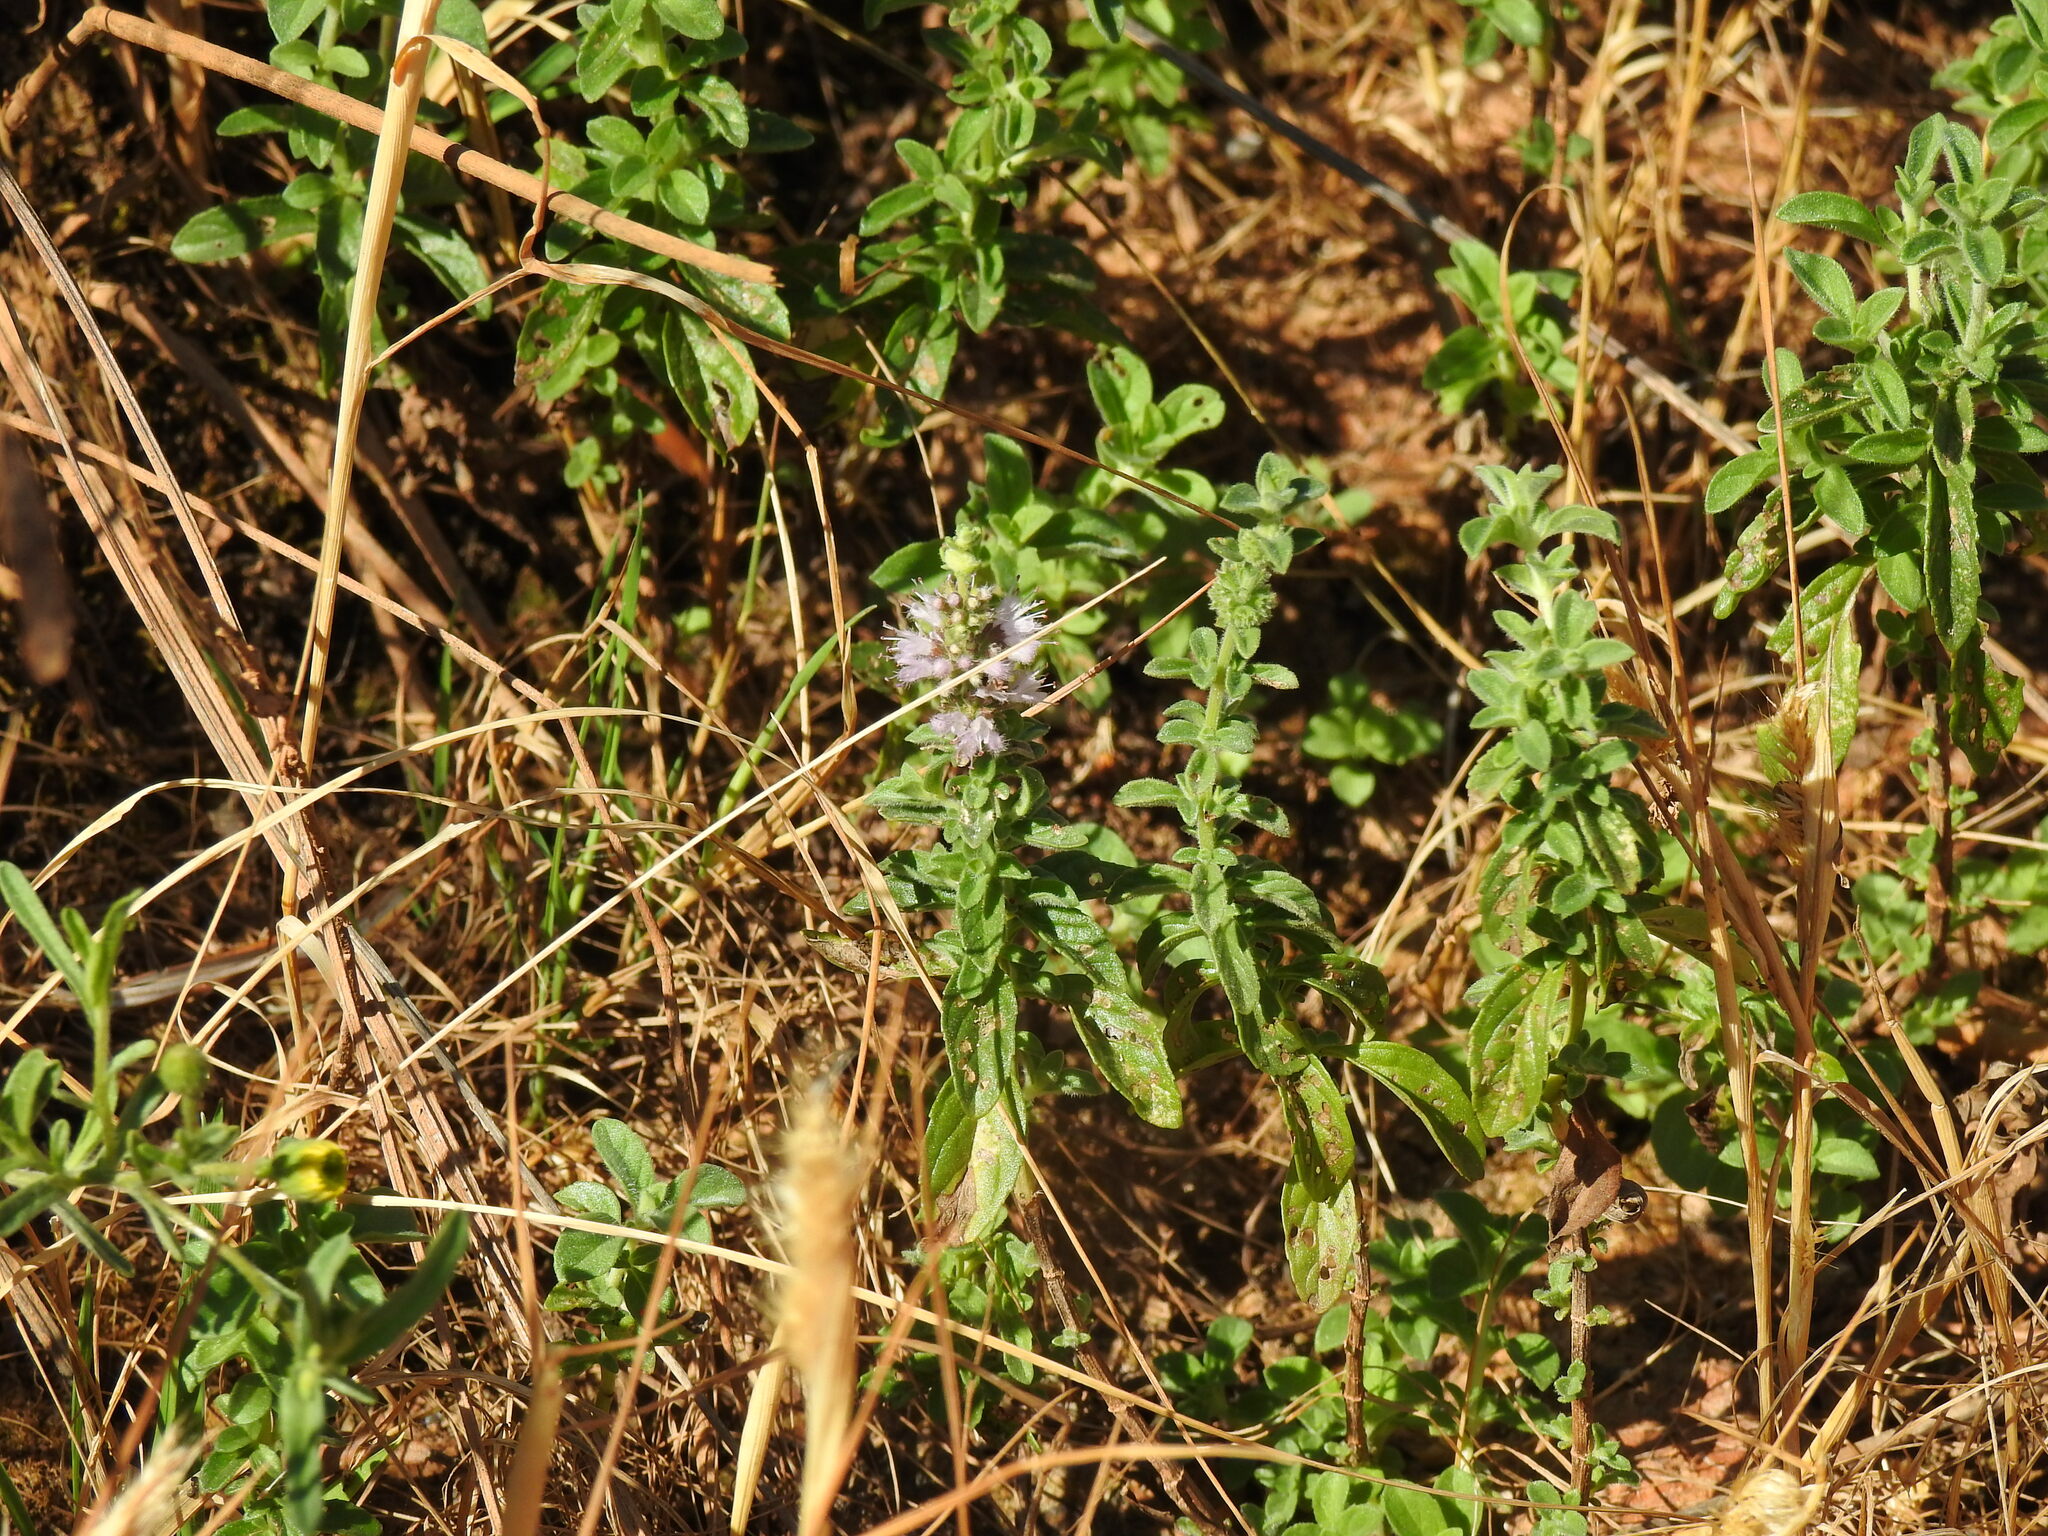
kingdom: Plantae
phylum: Tracheophyta
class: Magnoliopsida
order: Lamiales
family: Lamiaceae
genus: Mentha
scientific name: Mentha pulegium
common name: Pennyroyal
